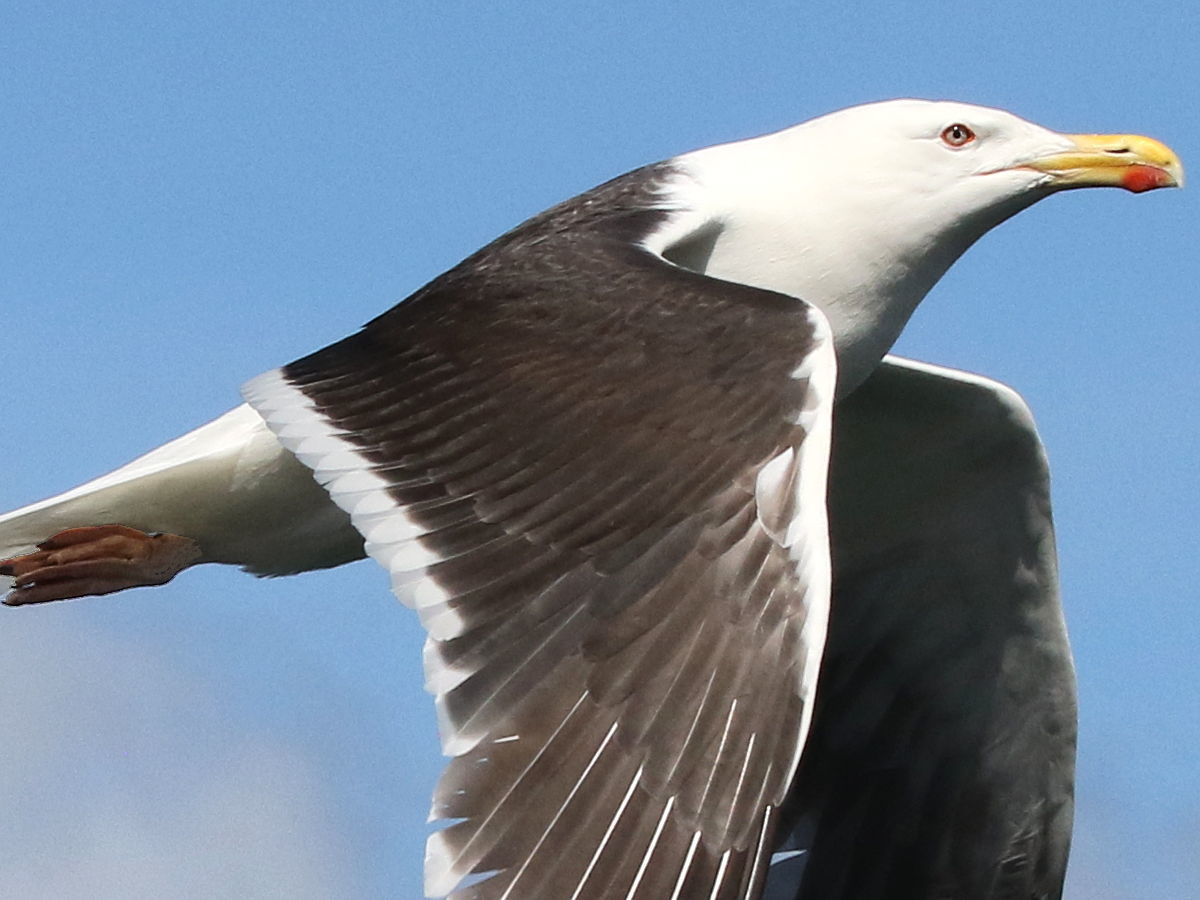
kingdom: Animalia
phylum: Chordata
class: Aves
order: Charadriiformes
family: Laridae
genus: Larus
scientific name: Larus marinus
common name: Great black-backed gull
